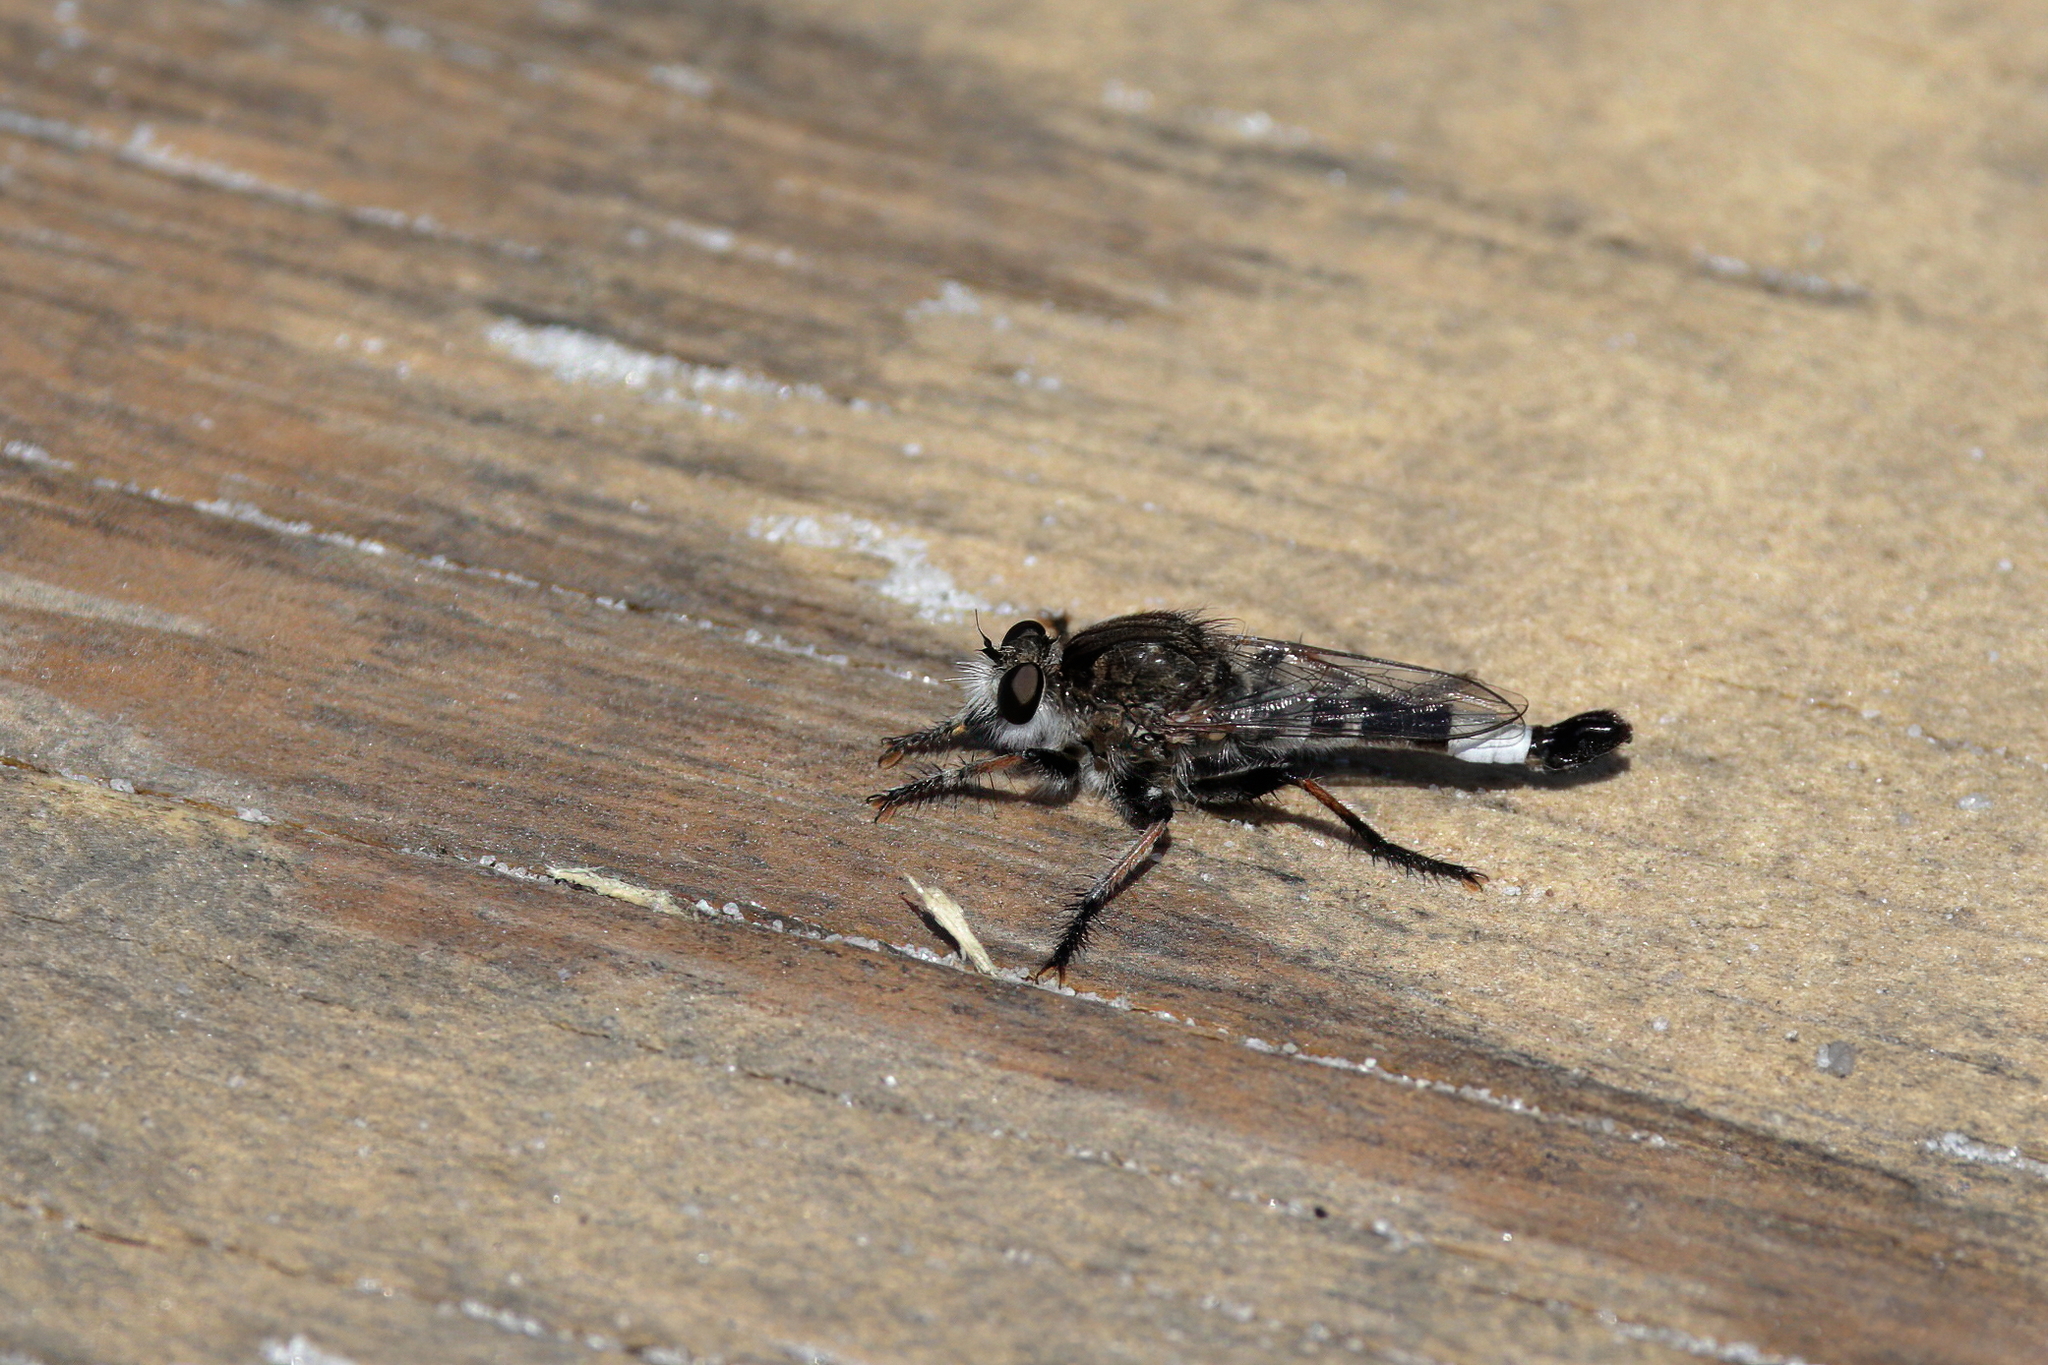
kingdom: Animalia
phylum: Arthropoda
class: Insecta
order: Diptera
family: Asilidae
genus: Efferia
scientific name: Efferia albibarbis
